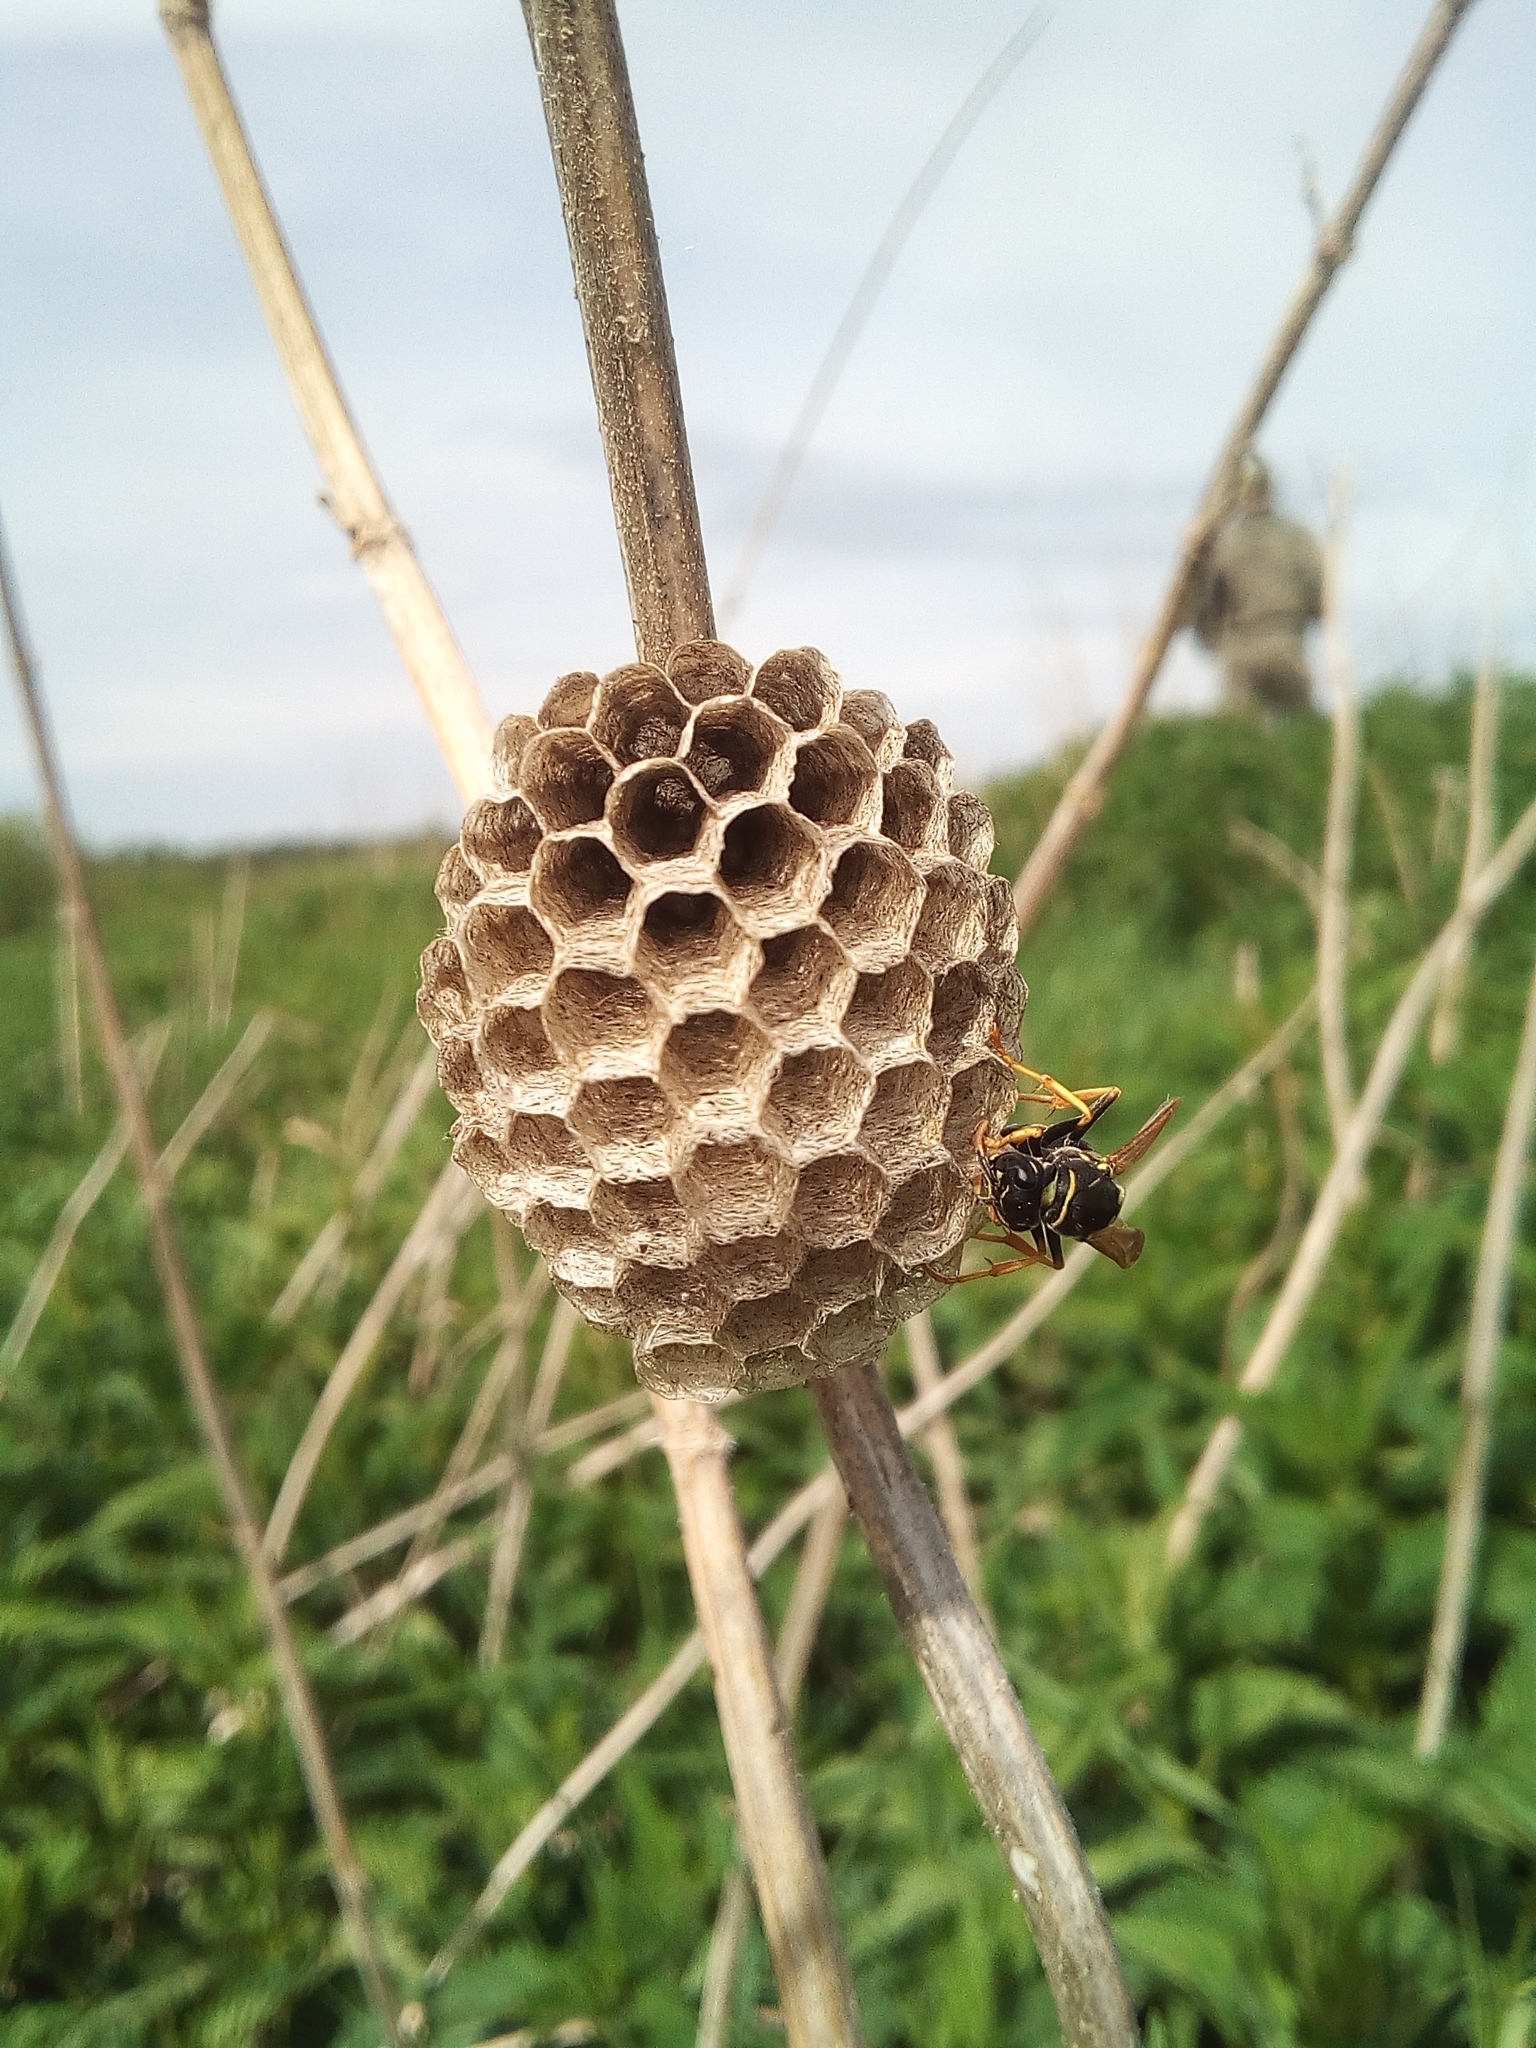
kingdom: Animalia
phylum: Arthropoda
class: Insecta
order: Hymenoptera
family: Eumenidae
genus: Polistes
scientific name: Polistes nimpha
